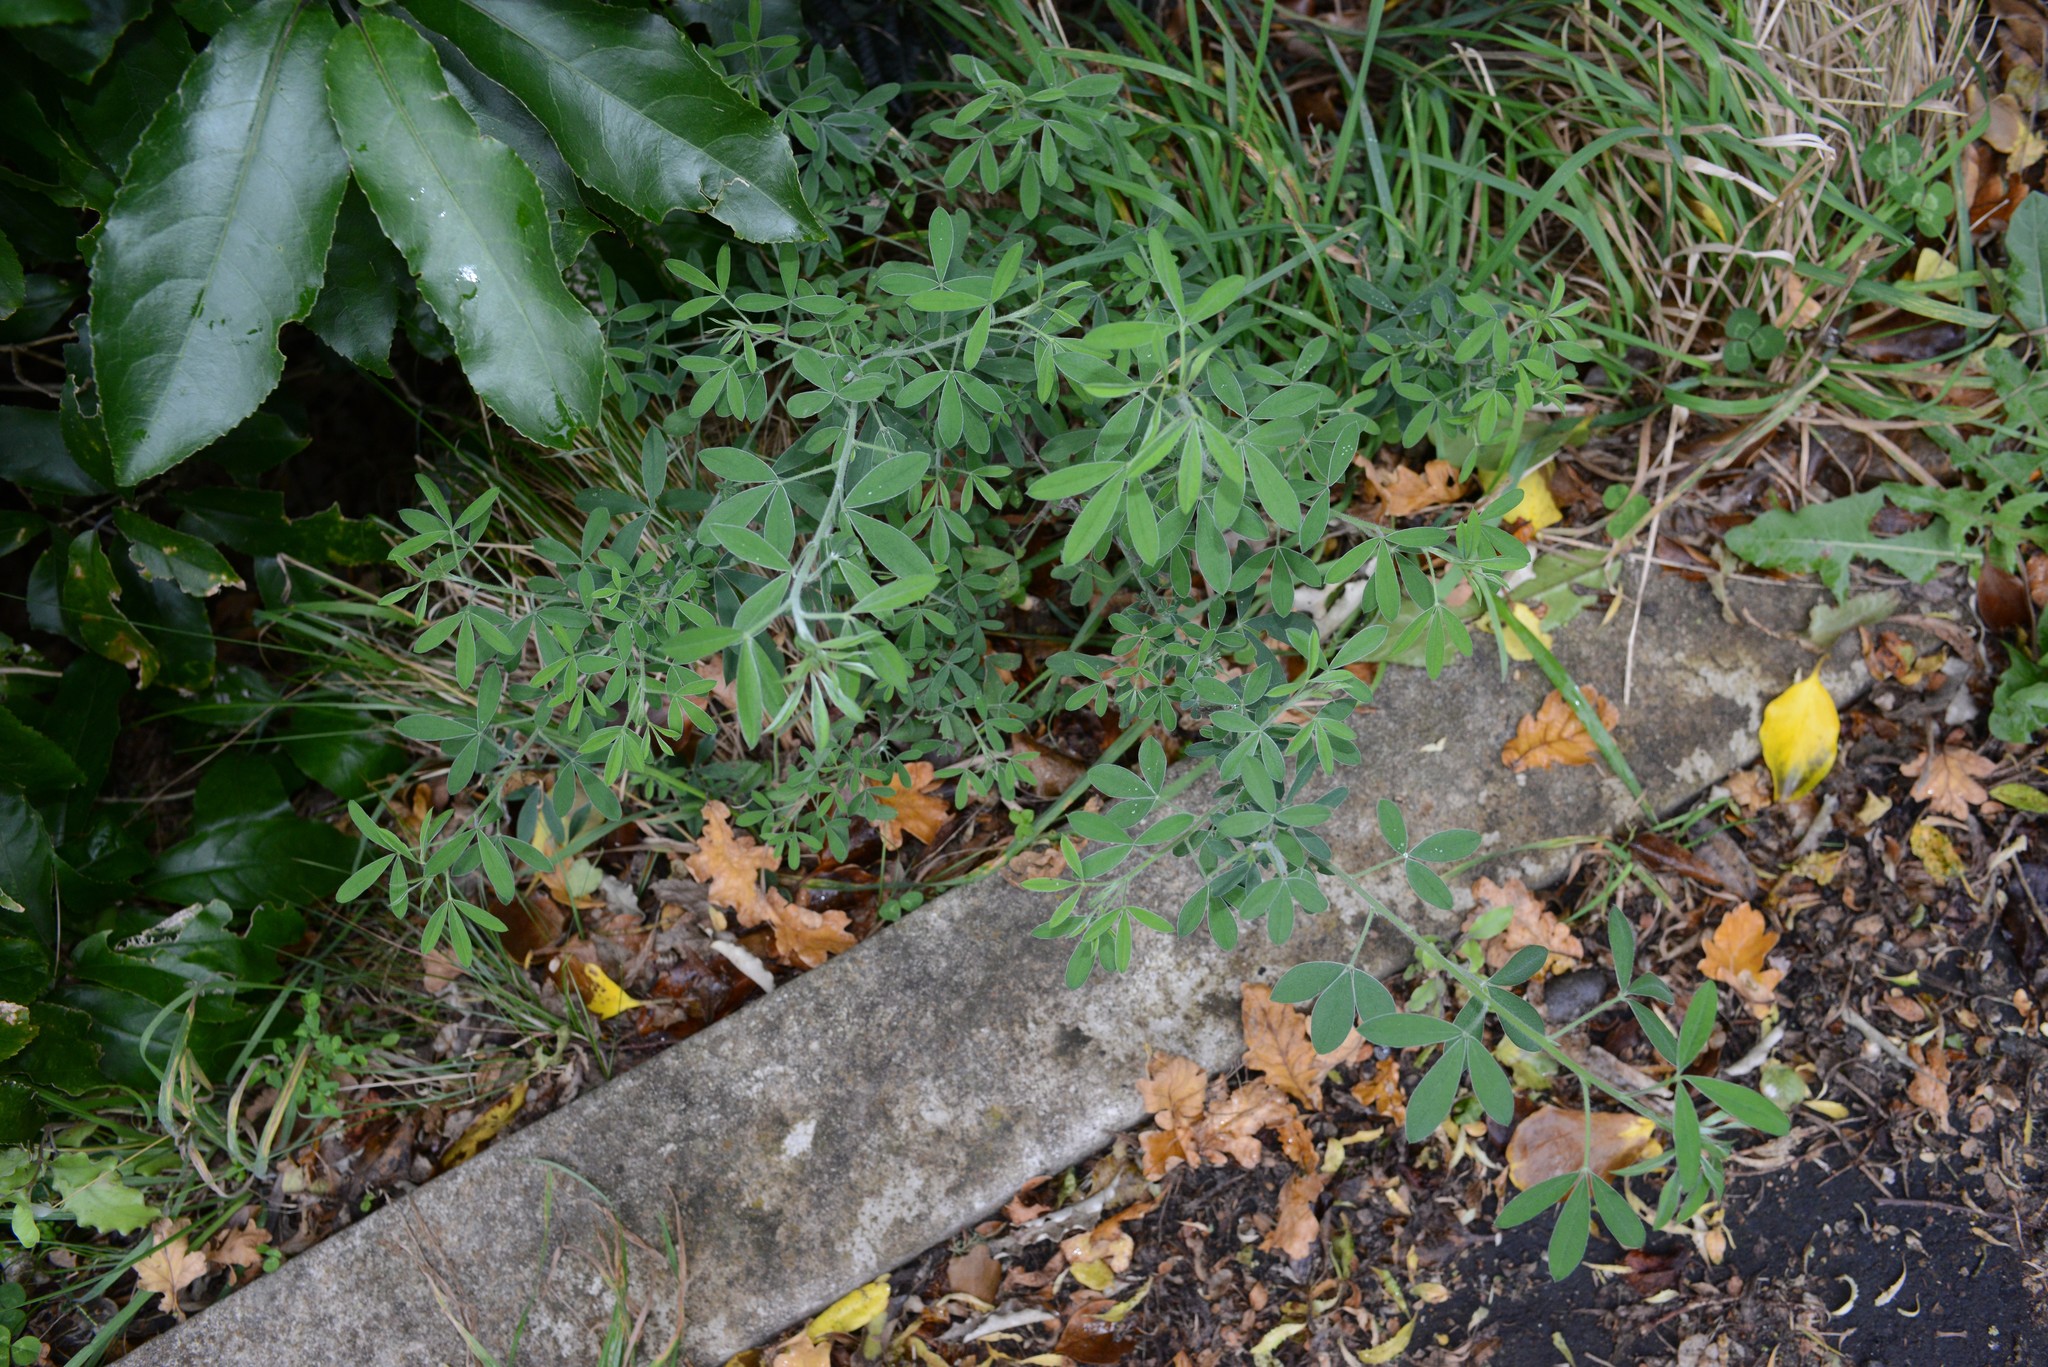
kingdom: Plantae
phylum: Tracheophyta
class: Magnoliopsida
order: Fabales
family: Fabaceae
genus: Chamaecytisus
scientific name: Chamaecytisus prolifer
